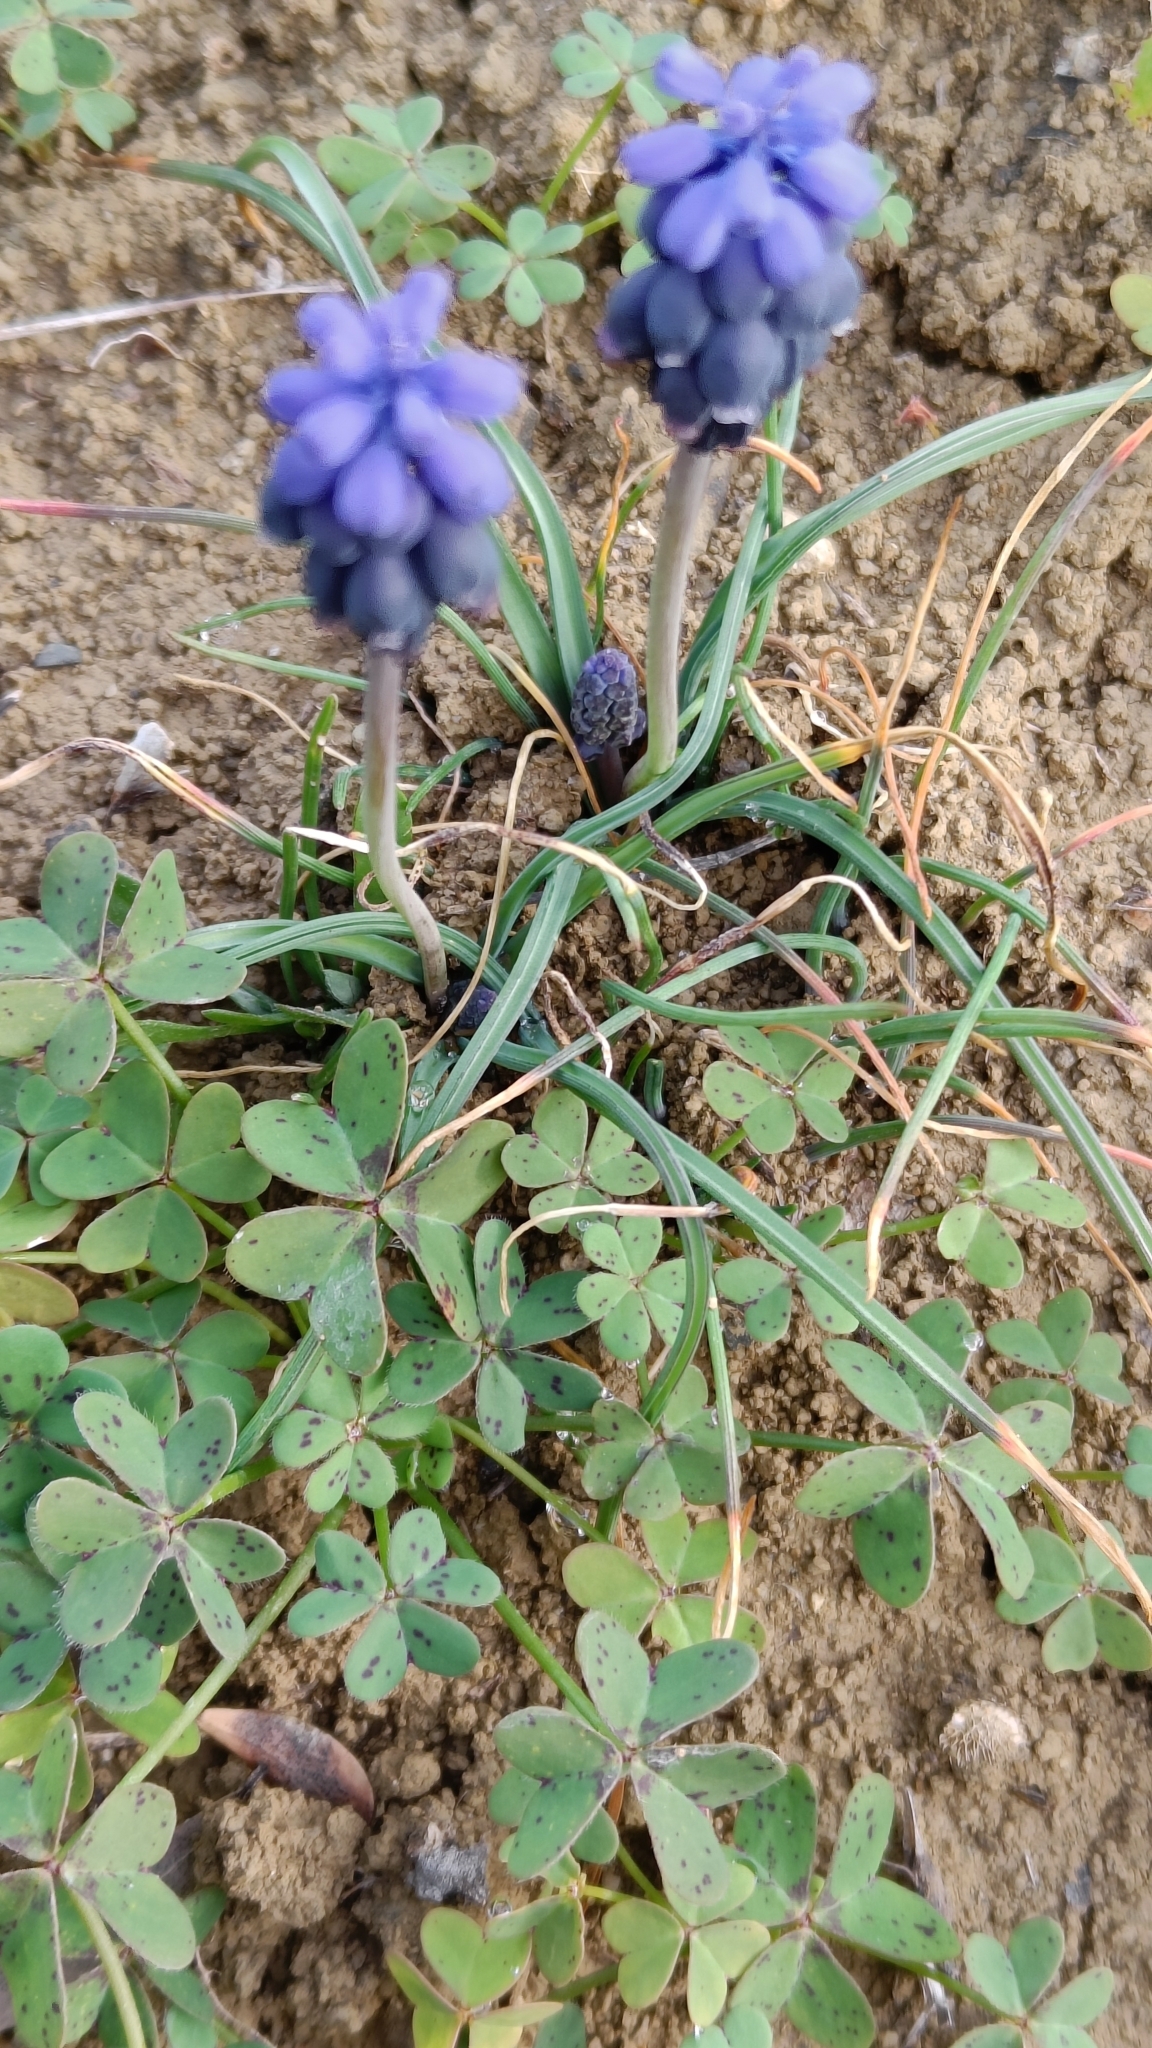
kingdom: Plantae
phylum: Tracheophyta
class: Liliopsida
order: Asparagales
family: Asparagaceae
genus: Muscari
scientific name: Muscari neglectum
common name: Grape-hyacinth
